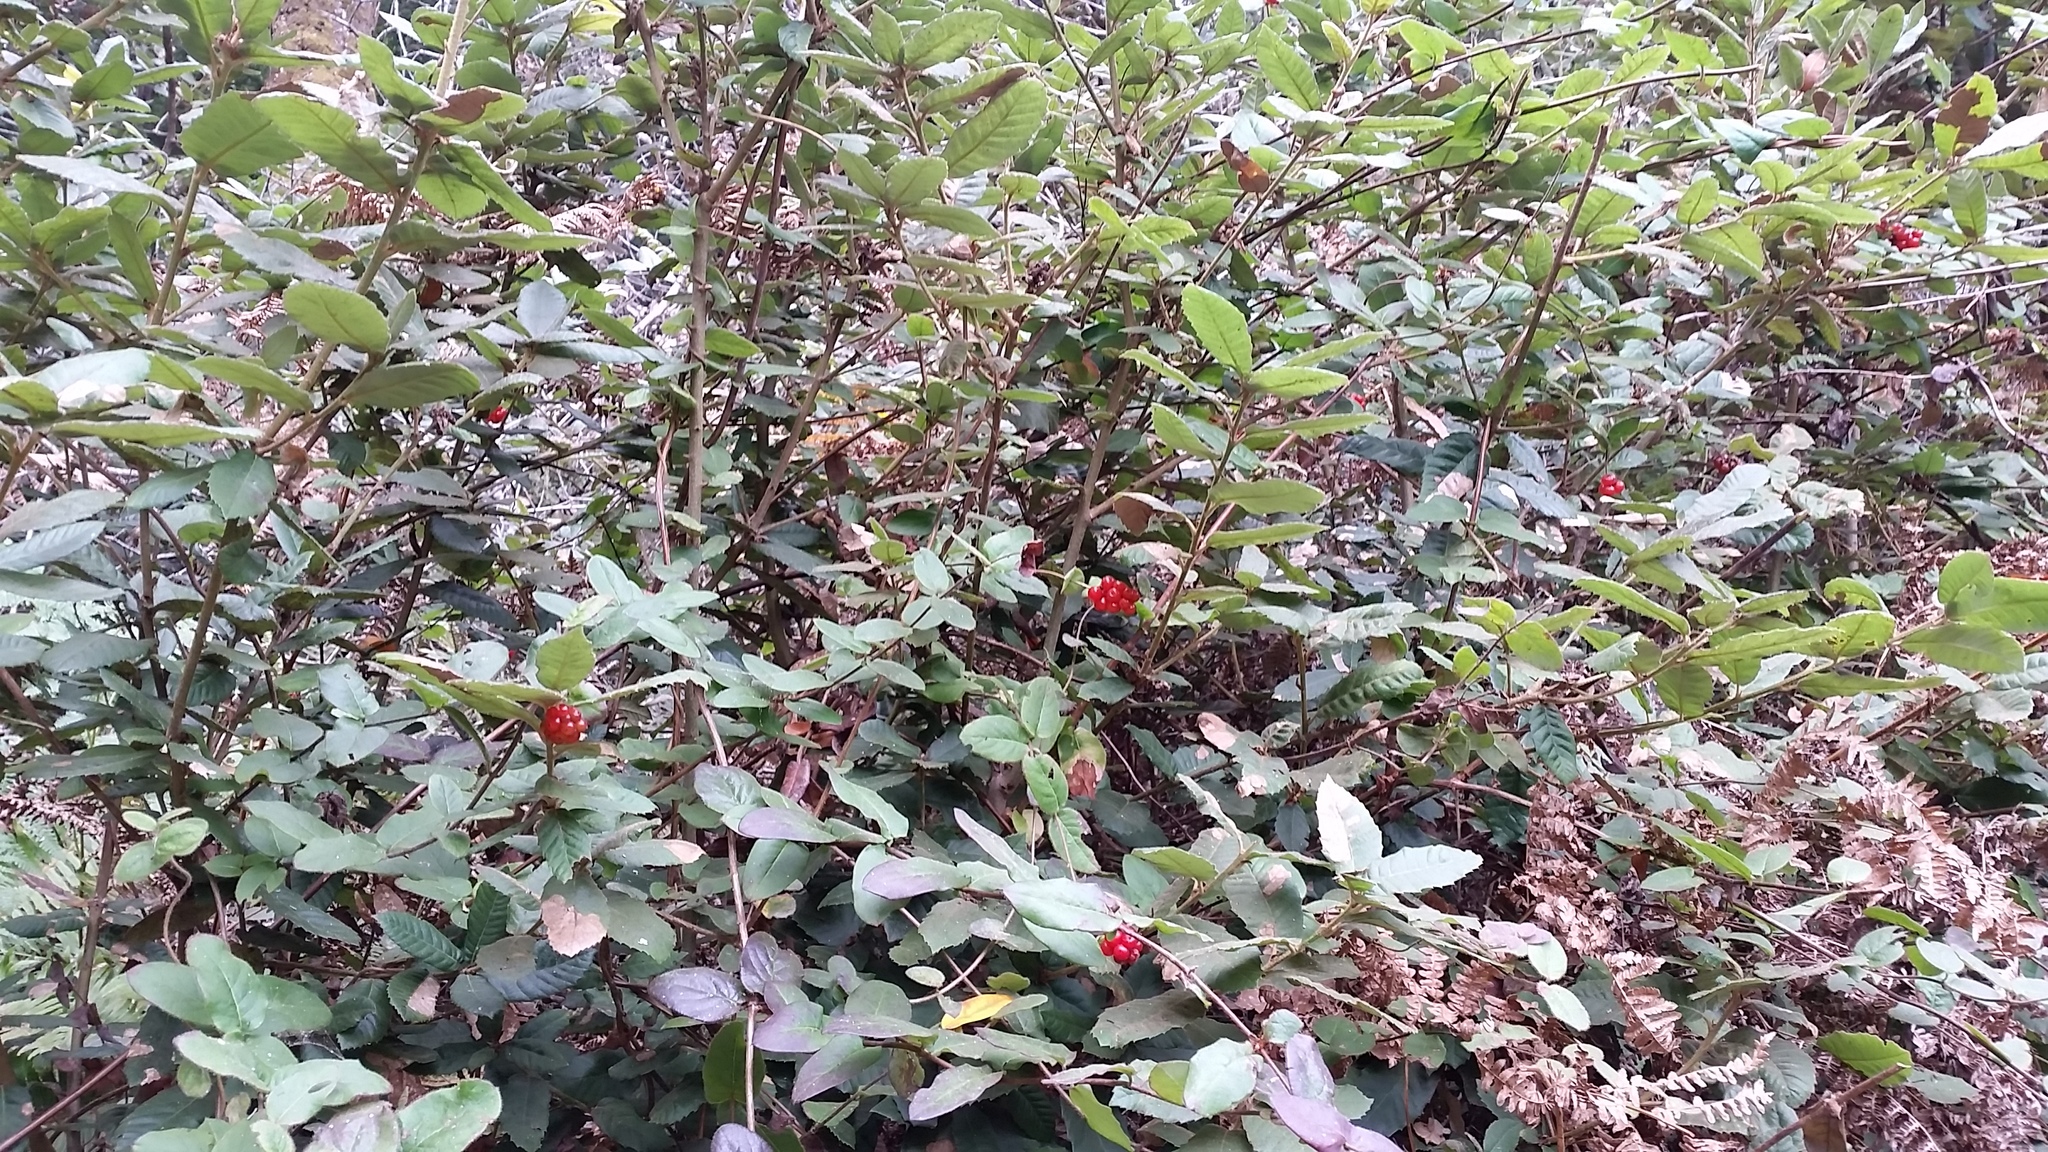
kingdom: Plantae
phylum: Tracheophyta
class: Magnoliopsida
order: Dipsacales
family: Caprifoliaceae
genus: Lonicera
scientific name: Lonicera hispidula
